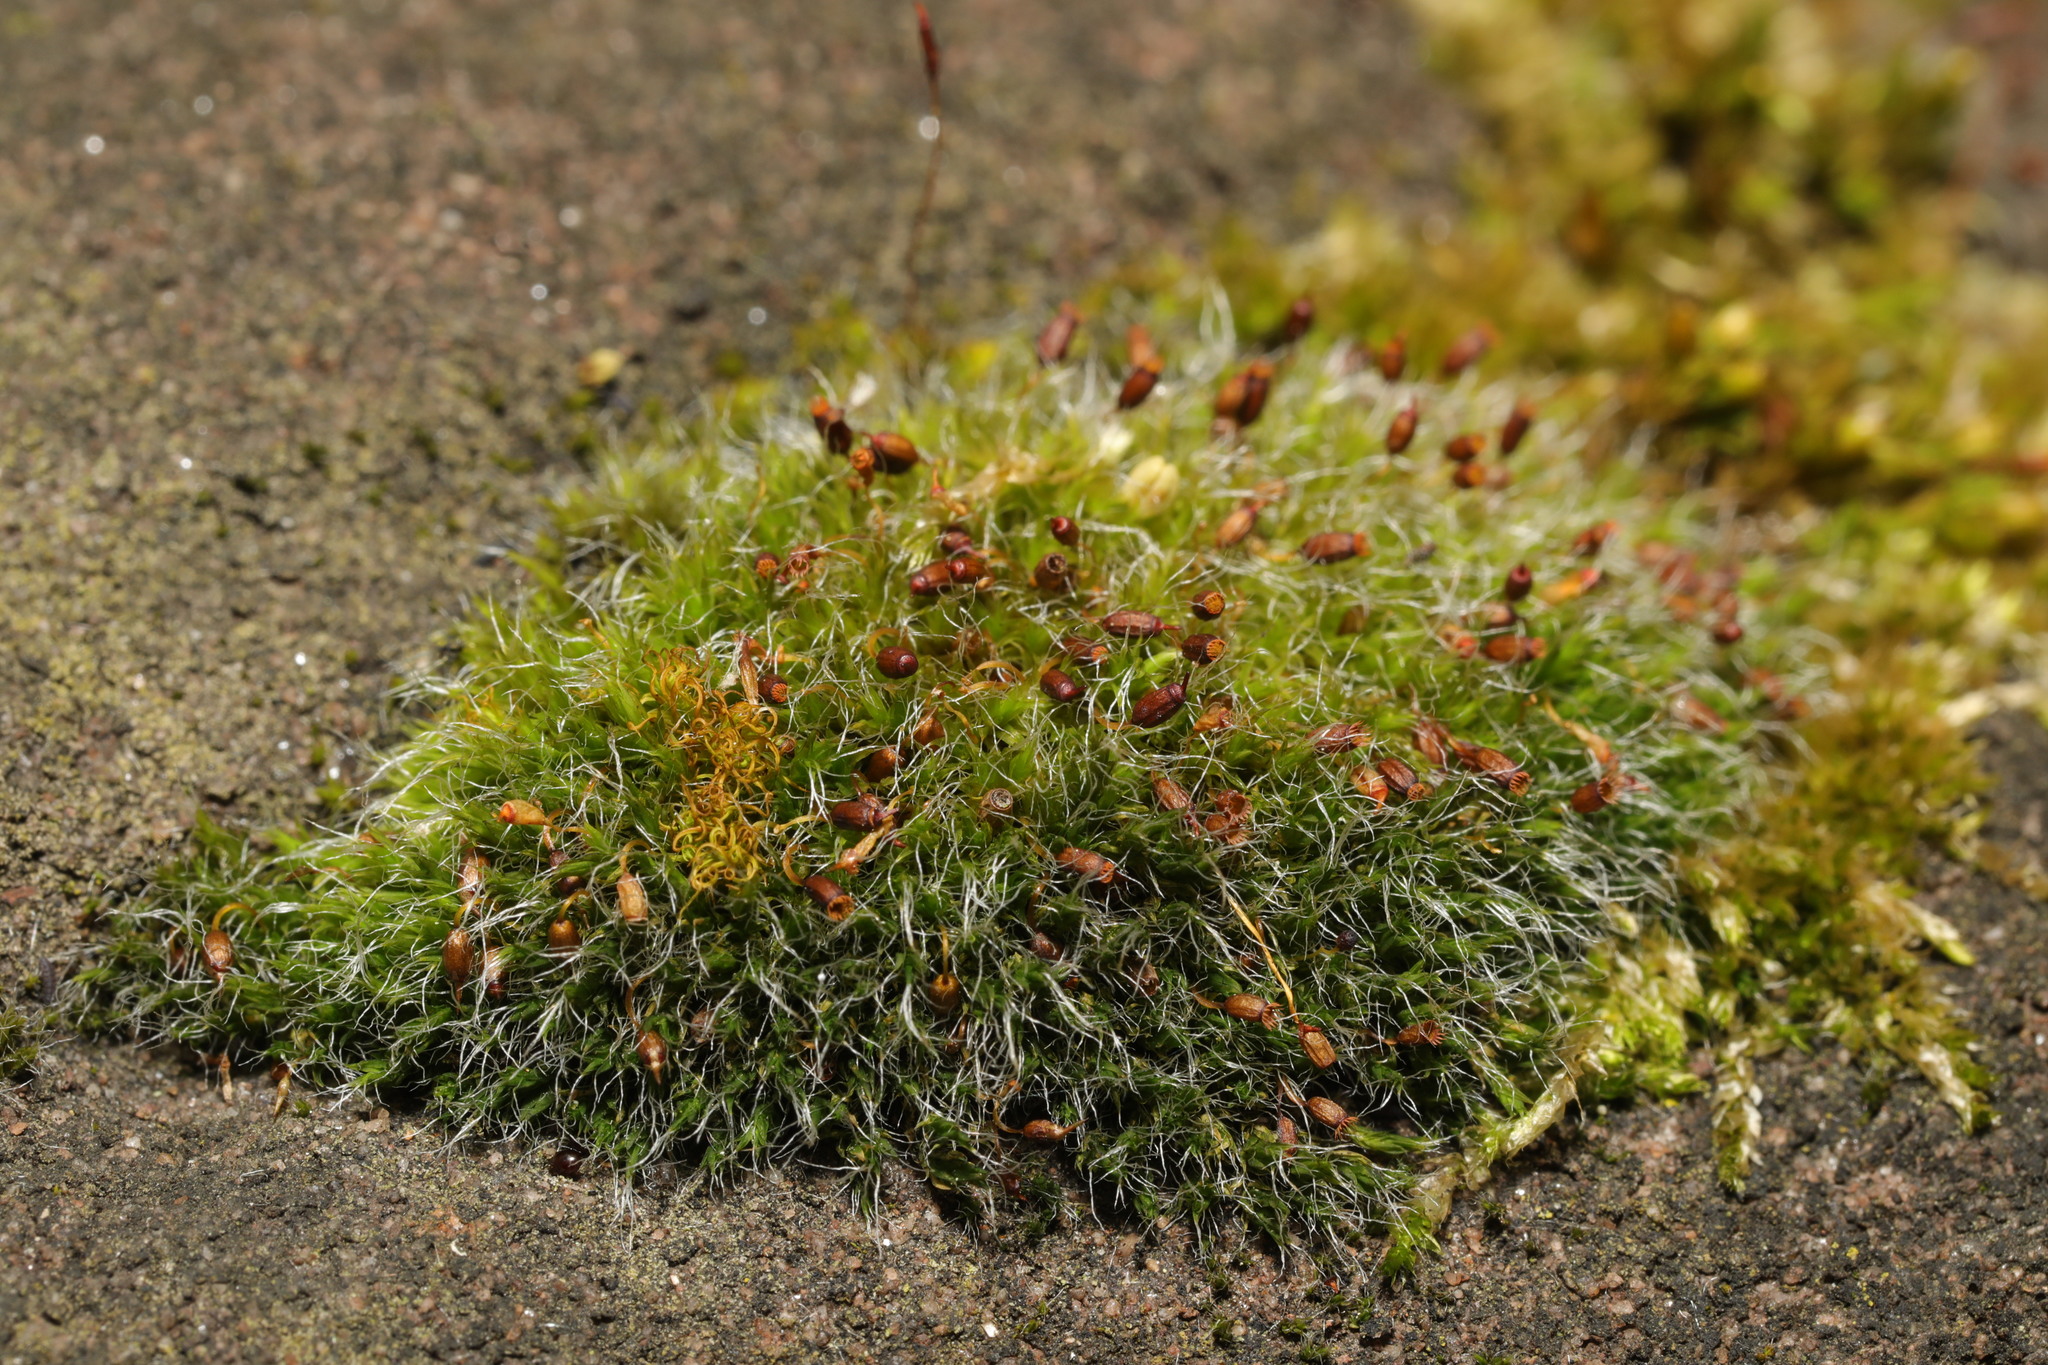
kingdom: Plantae
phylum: Bryophyta
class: Bryopsida
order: Grimmiales
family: Grimmiaceae
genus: Grimmia
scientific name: Grimmia pulvinata
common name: Grey-cushioned grimmia
